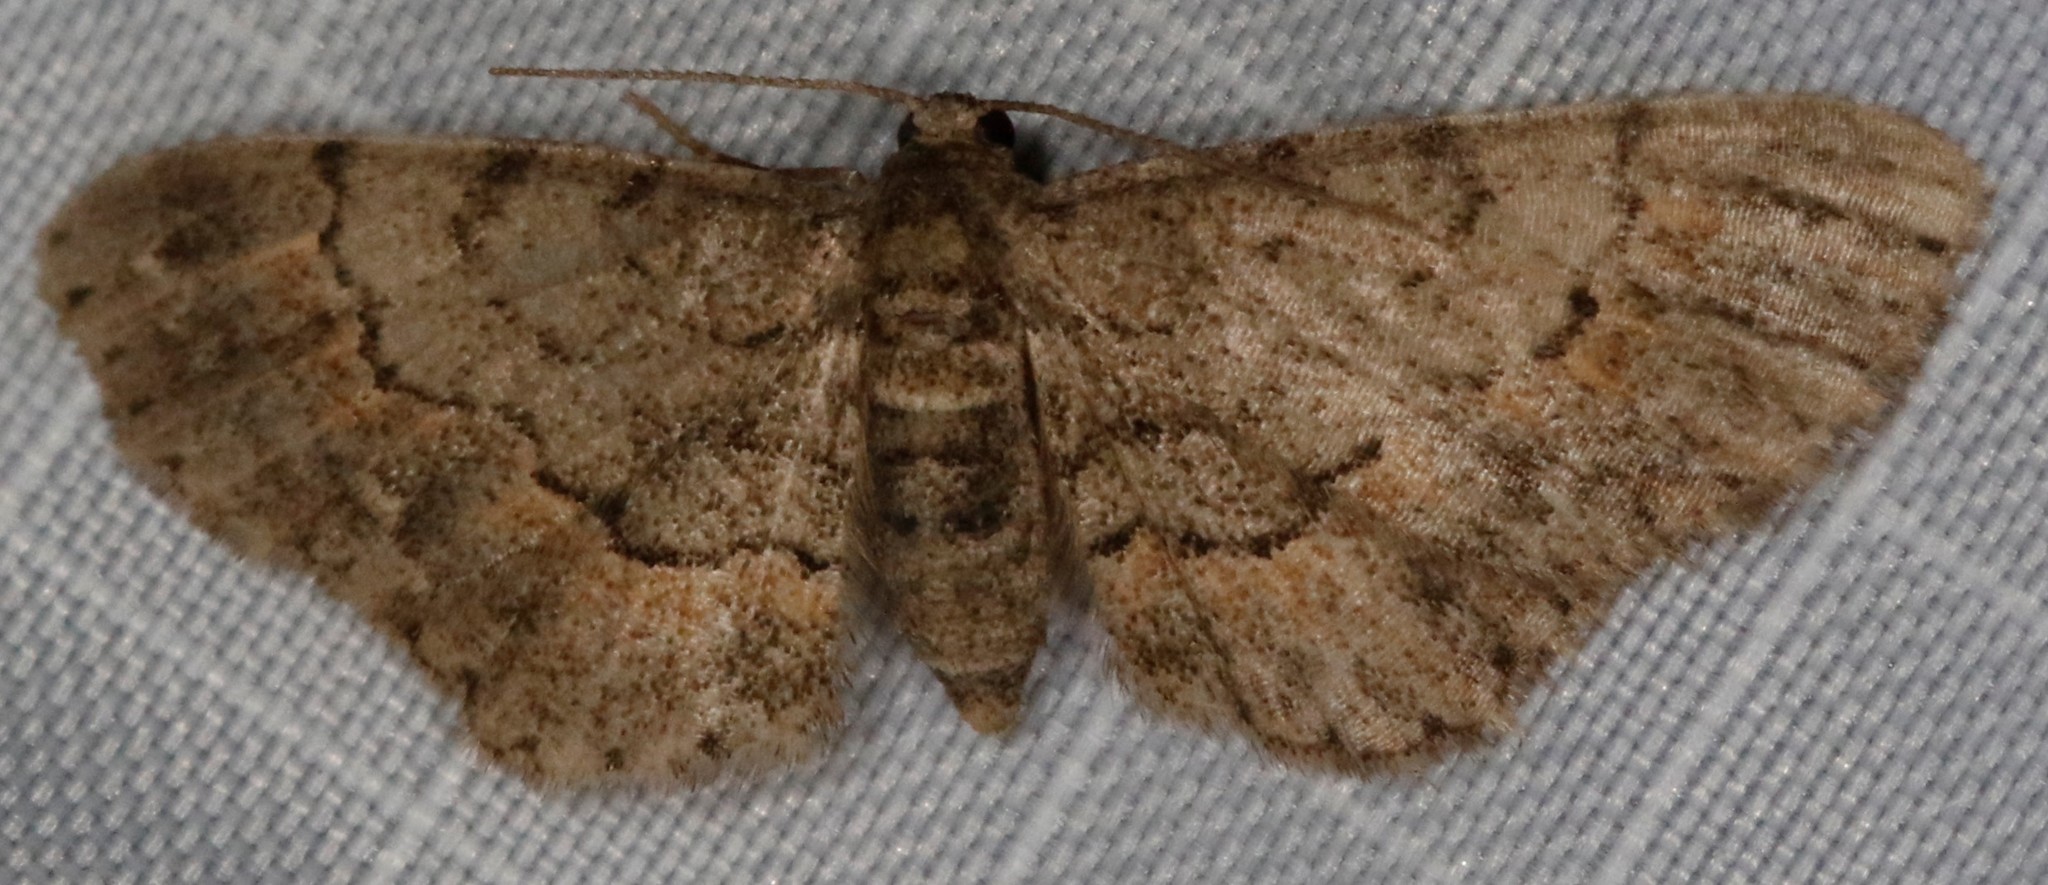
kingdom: Animalia
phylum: Arthropoda
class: Insecta
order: Lepidoptera
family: Geometridae
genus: Glenoides
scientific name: Glenoides texanaria
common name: Texas gray
